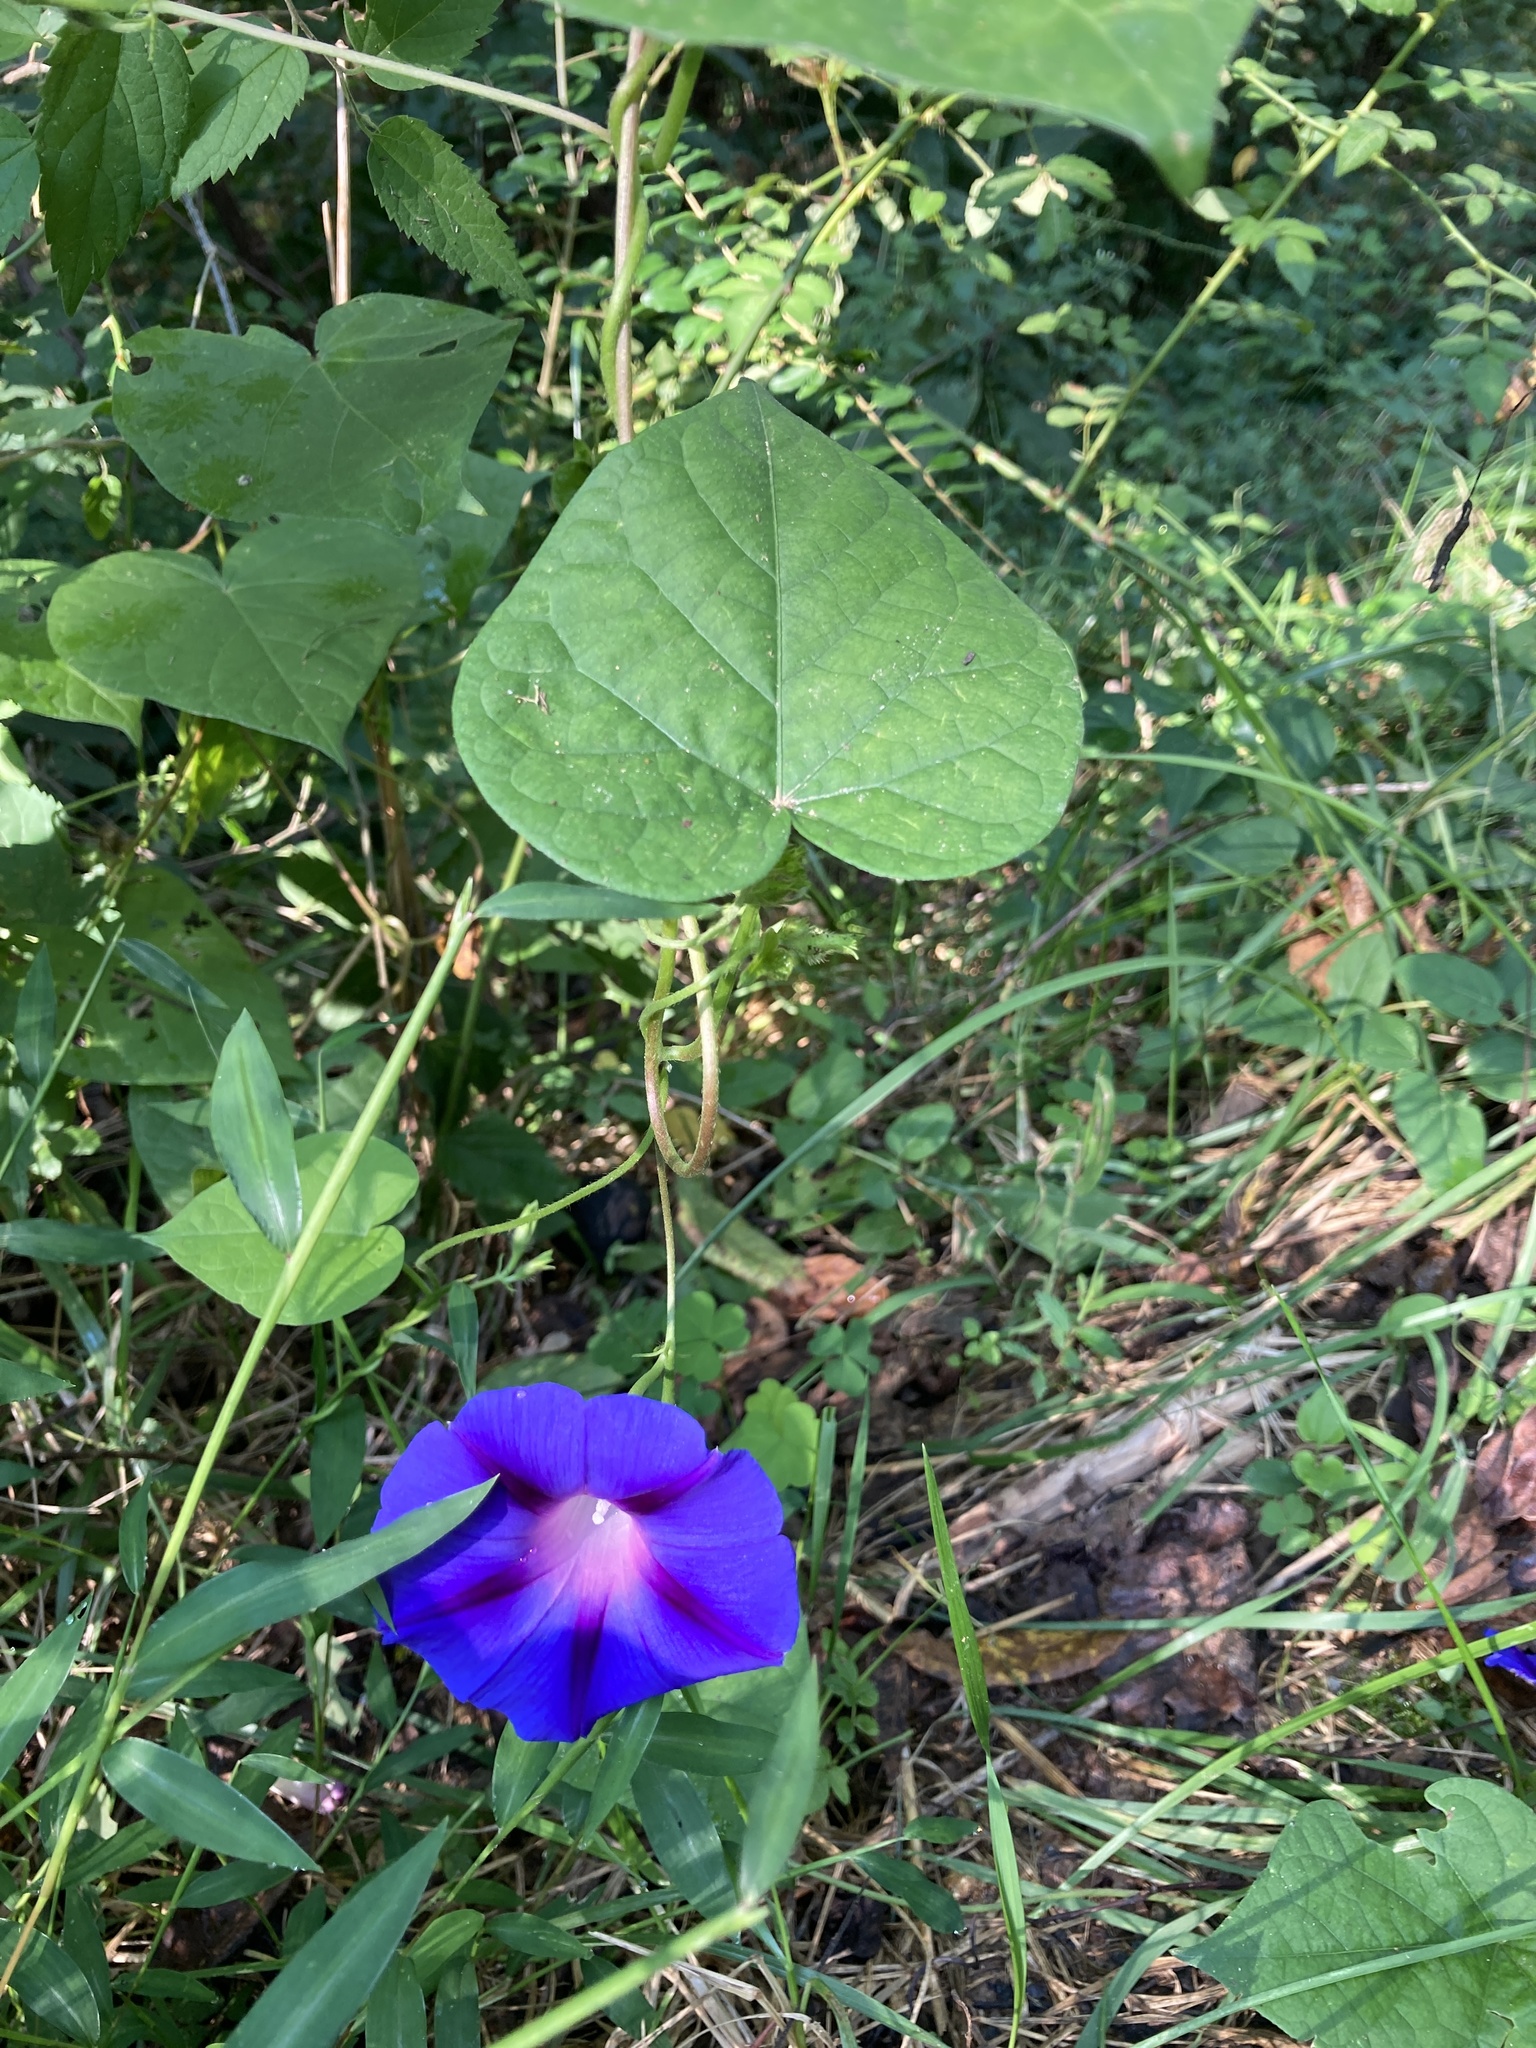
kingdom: Plantae
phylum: Tracheophyta
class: Magnoliopsida
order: Solanales
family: Convolvulaceae
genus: Ipomoea
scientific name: Ipomoea purpurea
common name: Common morning-glory
